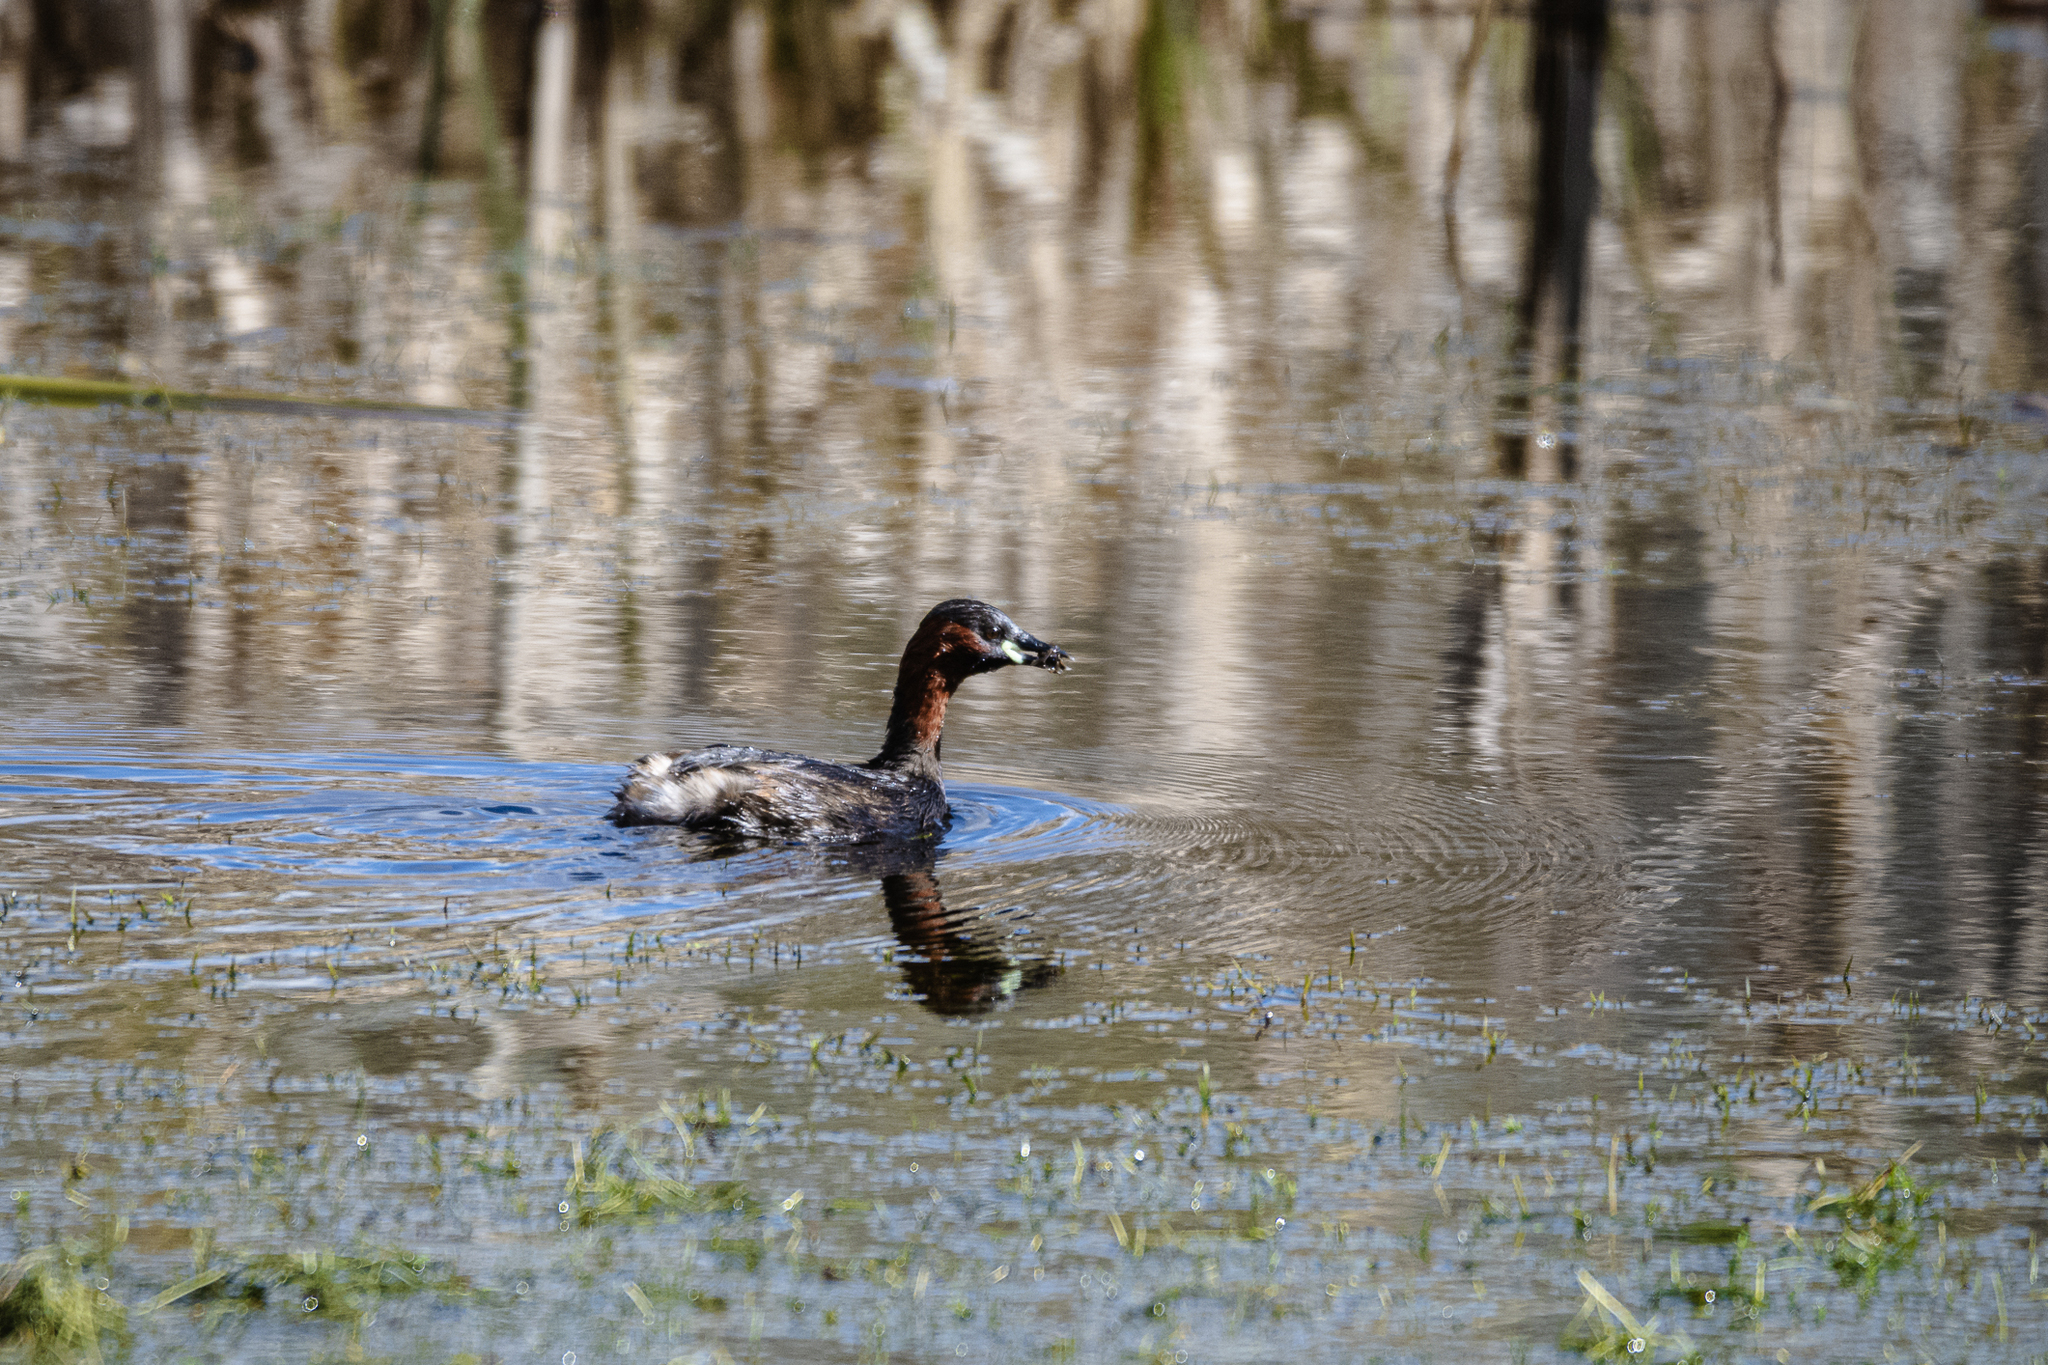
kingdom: Animalia
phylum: Chordata
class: Aves
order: Podicipediformes
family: Podicipedidae
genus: Tachybaptus
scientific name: Tachybaptus ruficollis
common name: Little grebe
